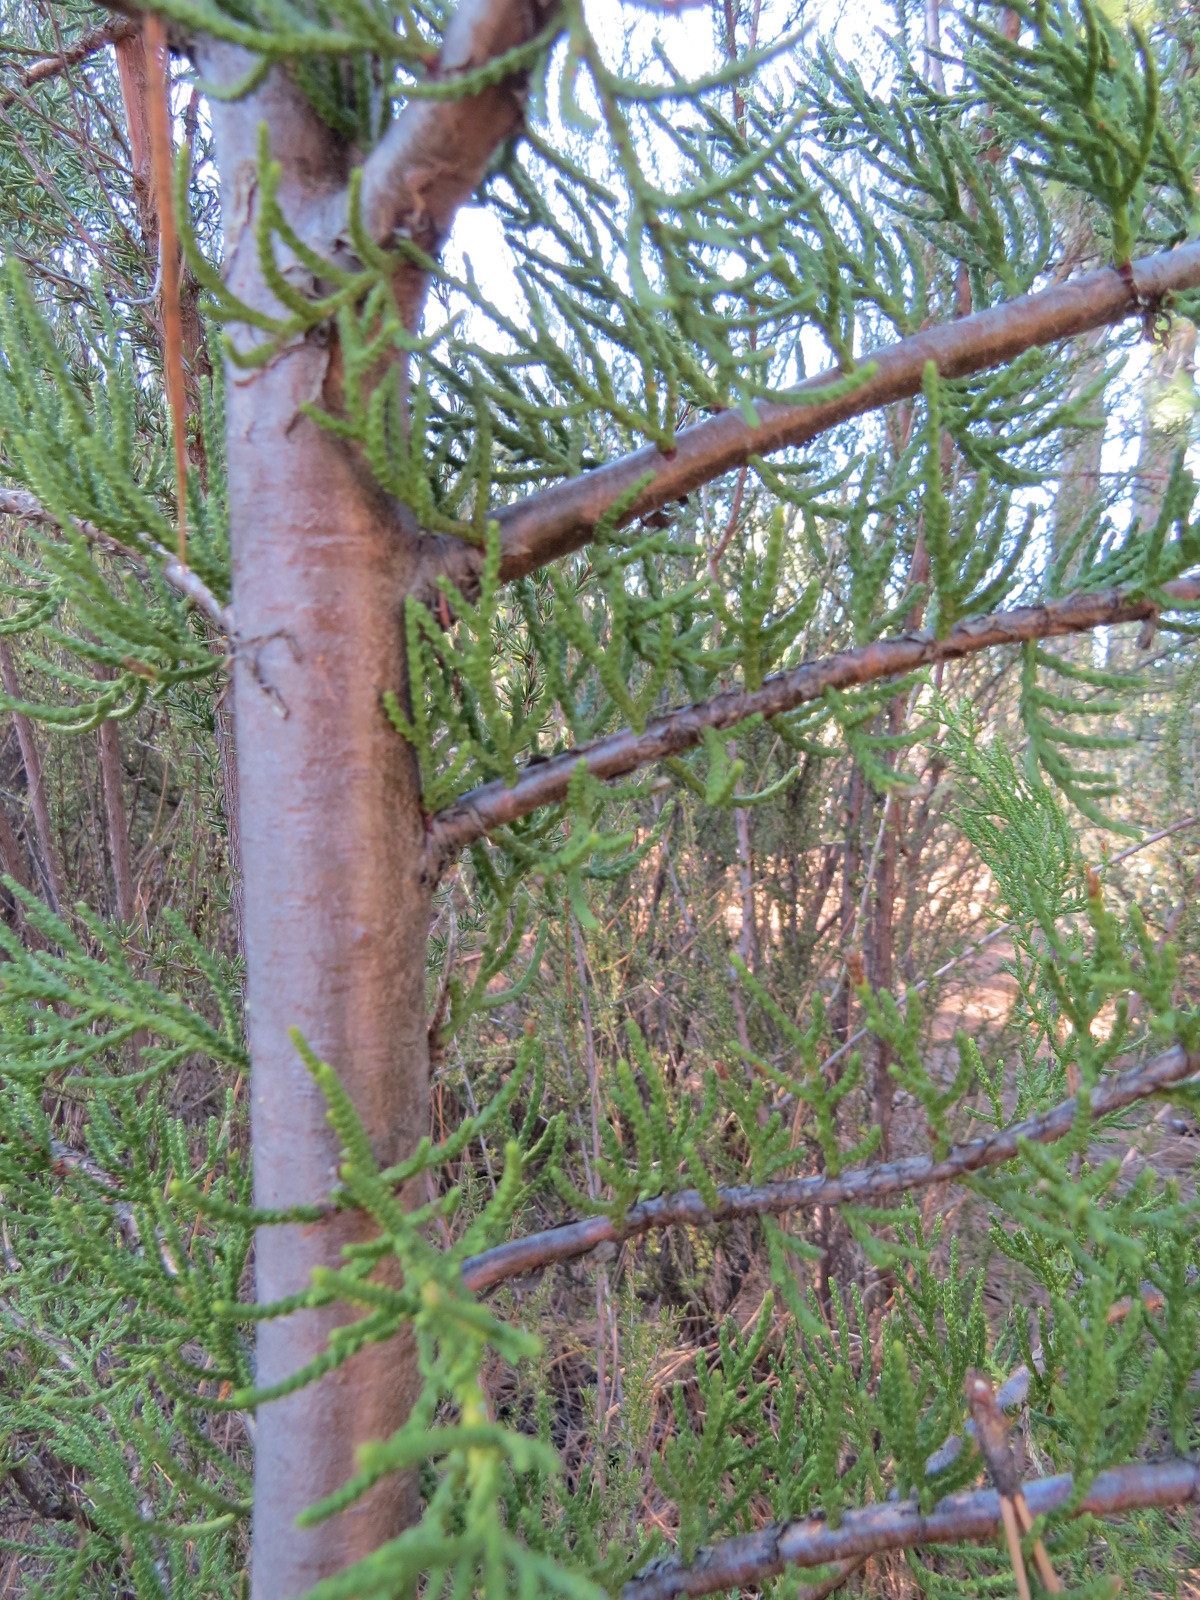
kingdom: Plantae
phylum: Tracheophyta
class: Pinopsida
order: Pinales
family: Cupressaceae
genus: Cupressus
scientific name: Cupressus goveniana
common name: Gowen cypress
